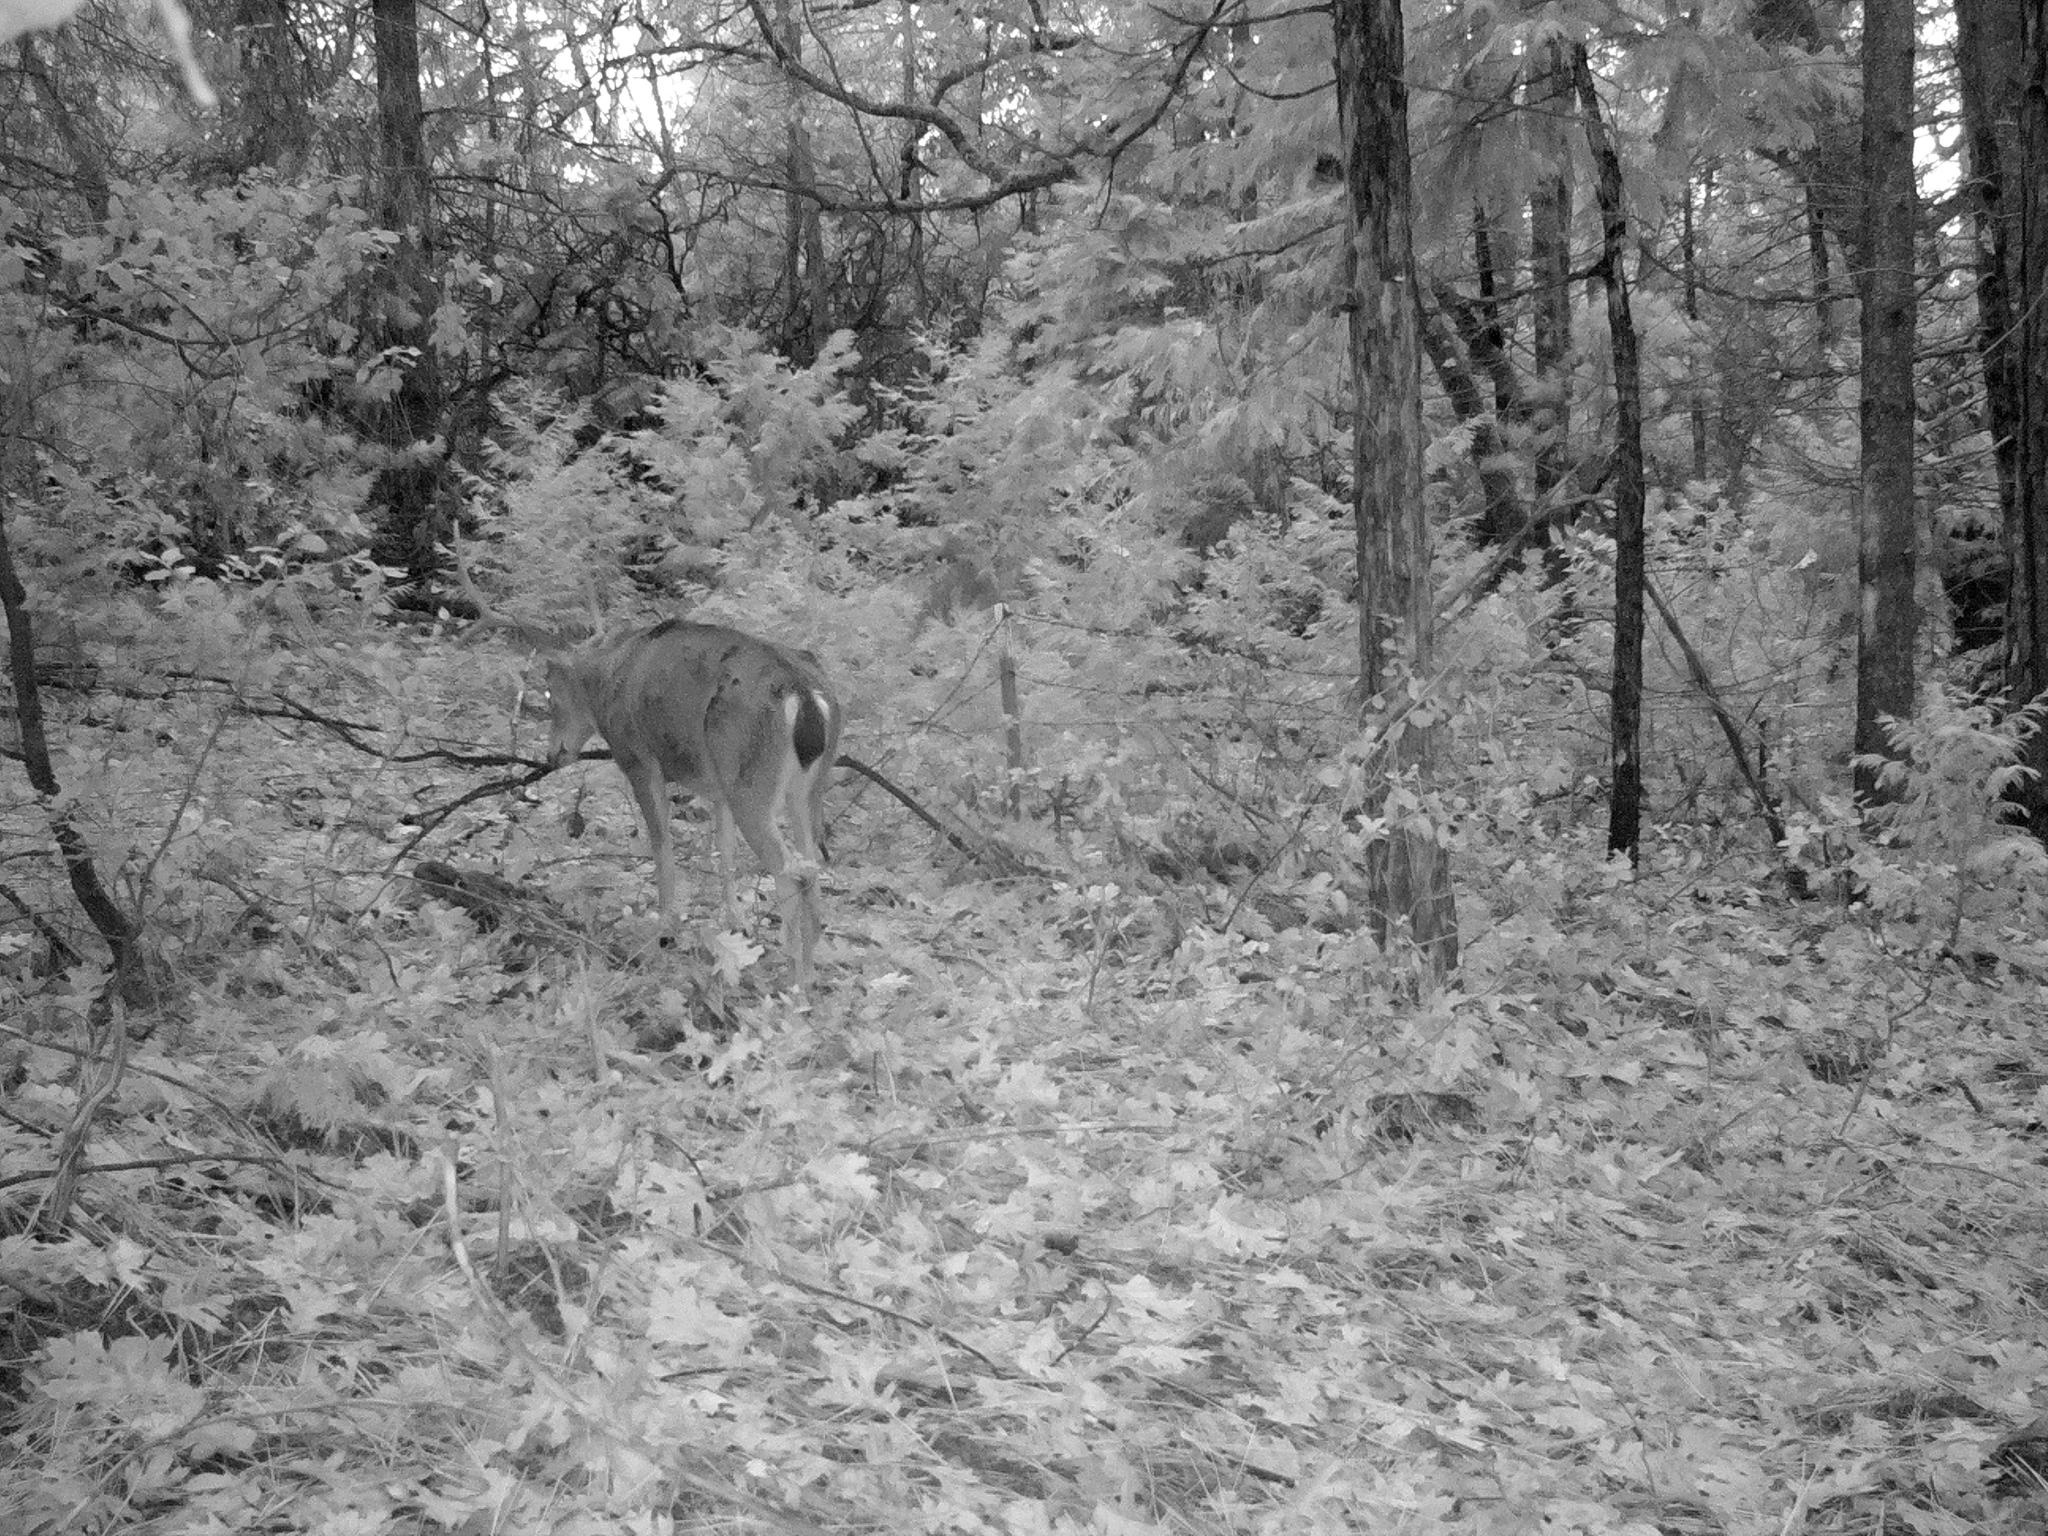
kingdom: Animalia
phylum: Chordata
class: Mammalia
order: Artiodactyla
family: Cervidae
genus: Odocoileus
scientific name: Odocoileus hemionus
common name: Mule deer
